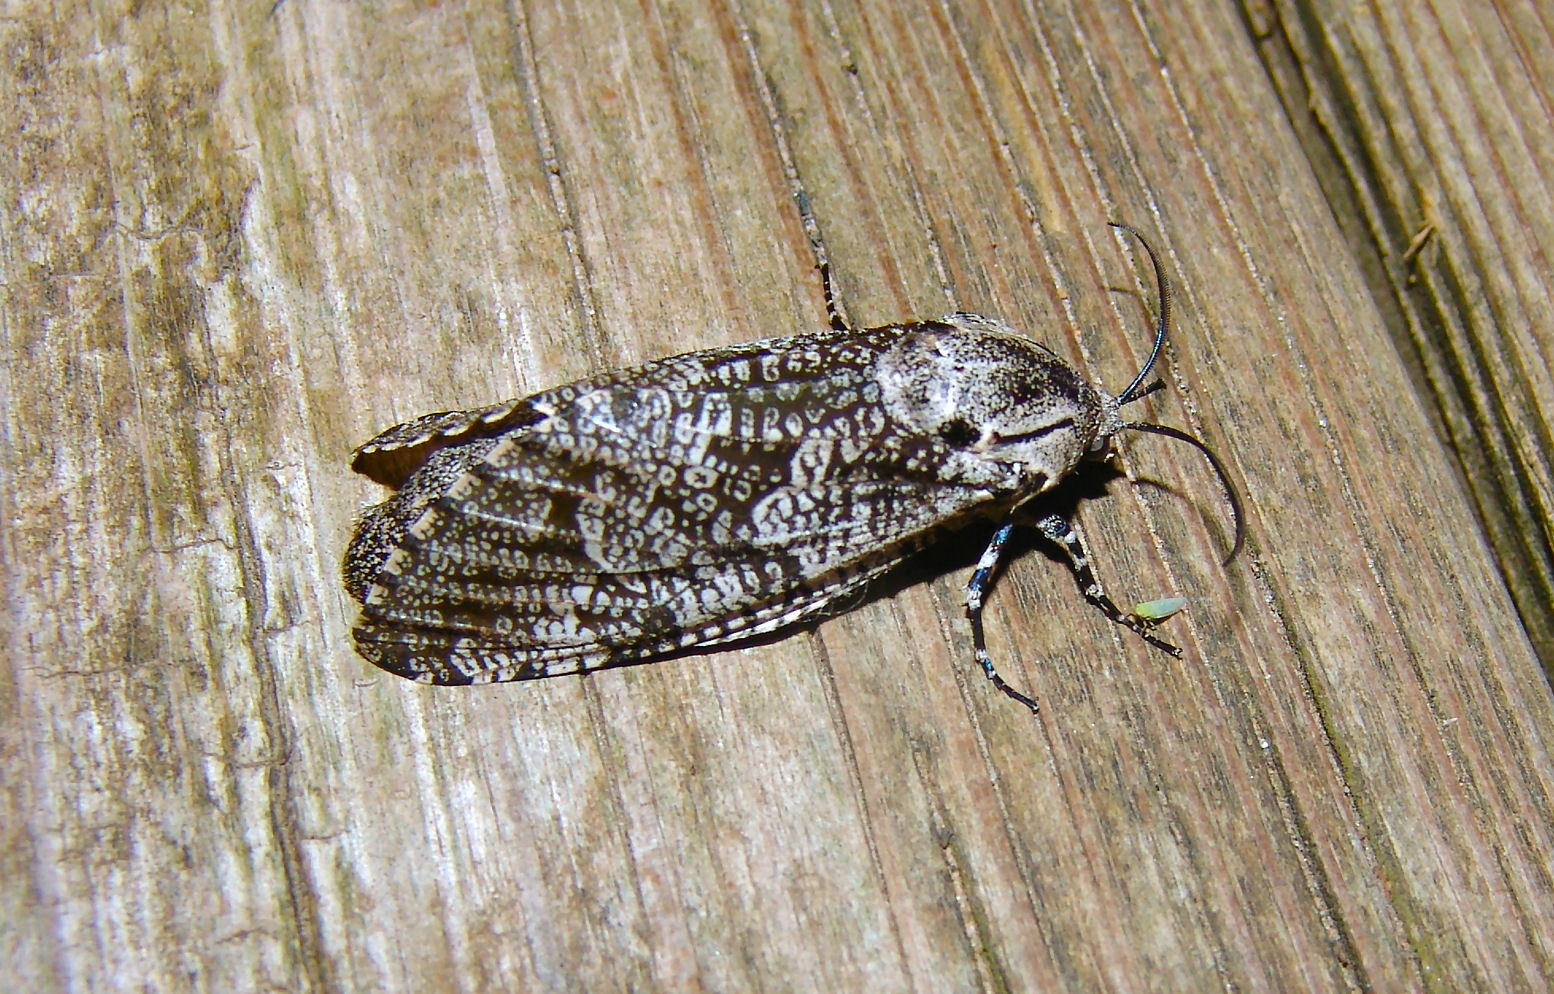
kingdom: Animalia
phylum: Arthropoda
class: Insecta
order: Lepidoptera
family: Cossidae
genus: Prionoxystus
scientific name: Prionoxystus robiniae
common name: Carpenterworm
